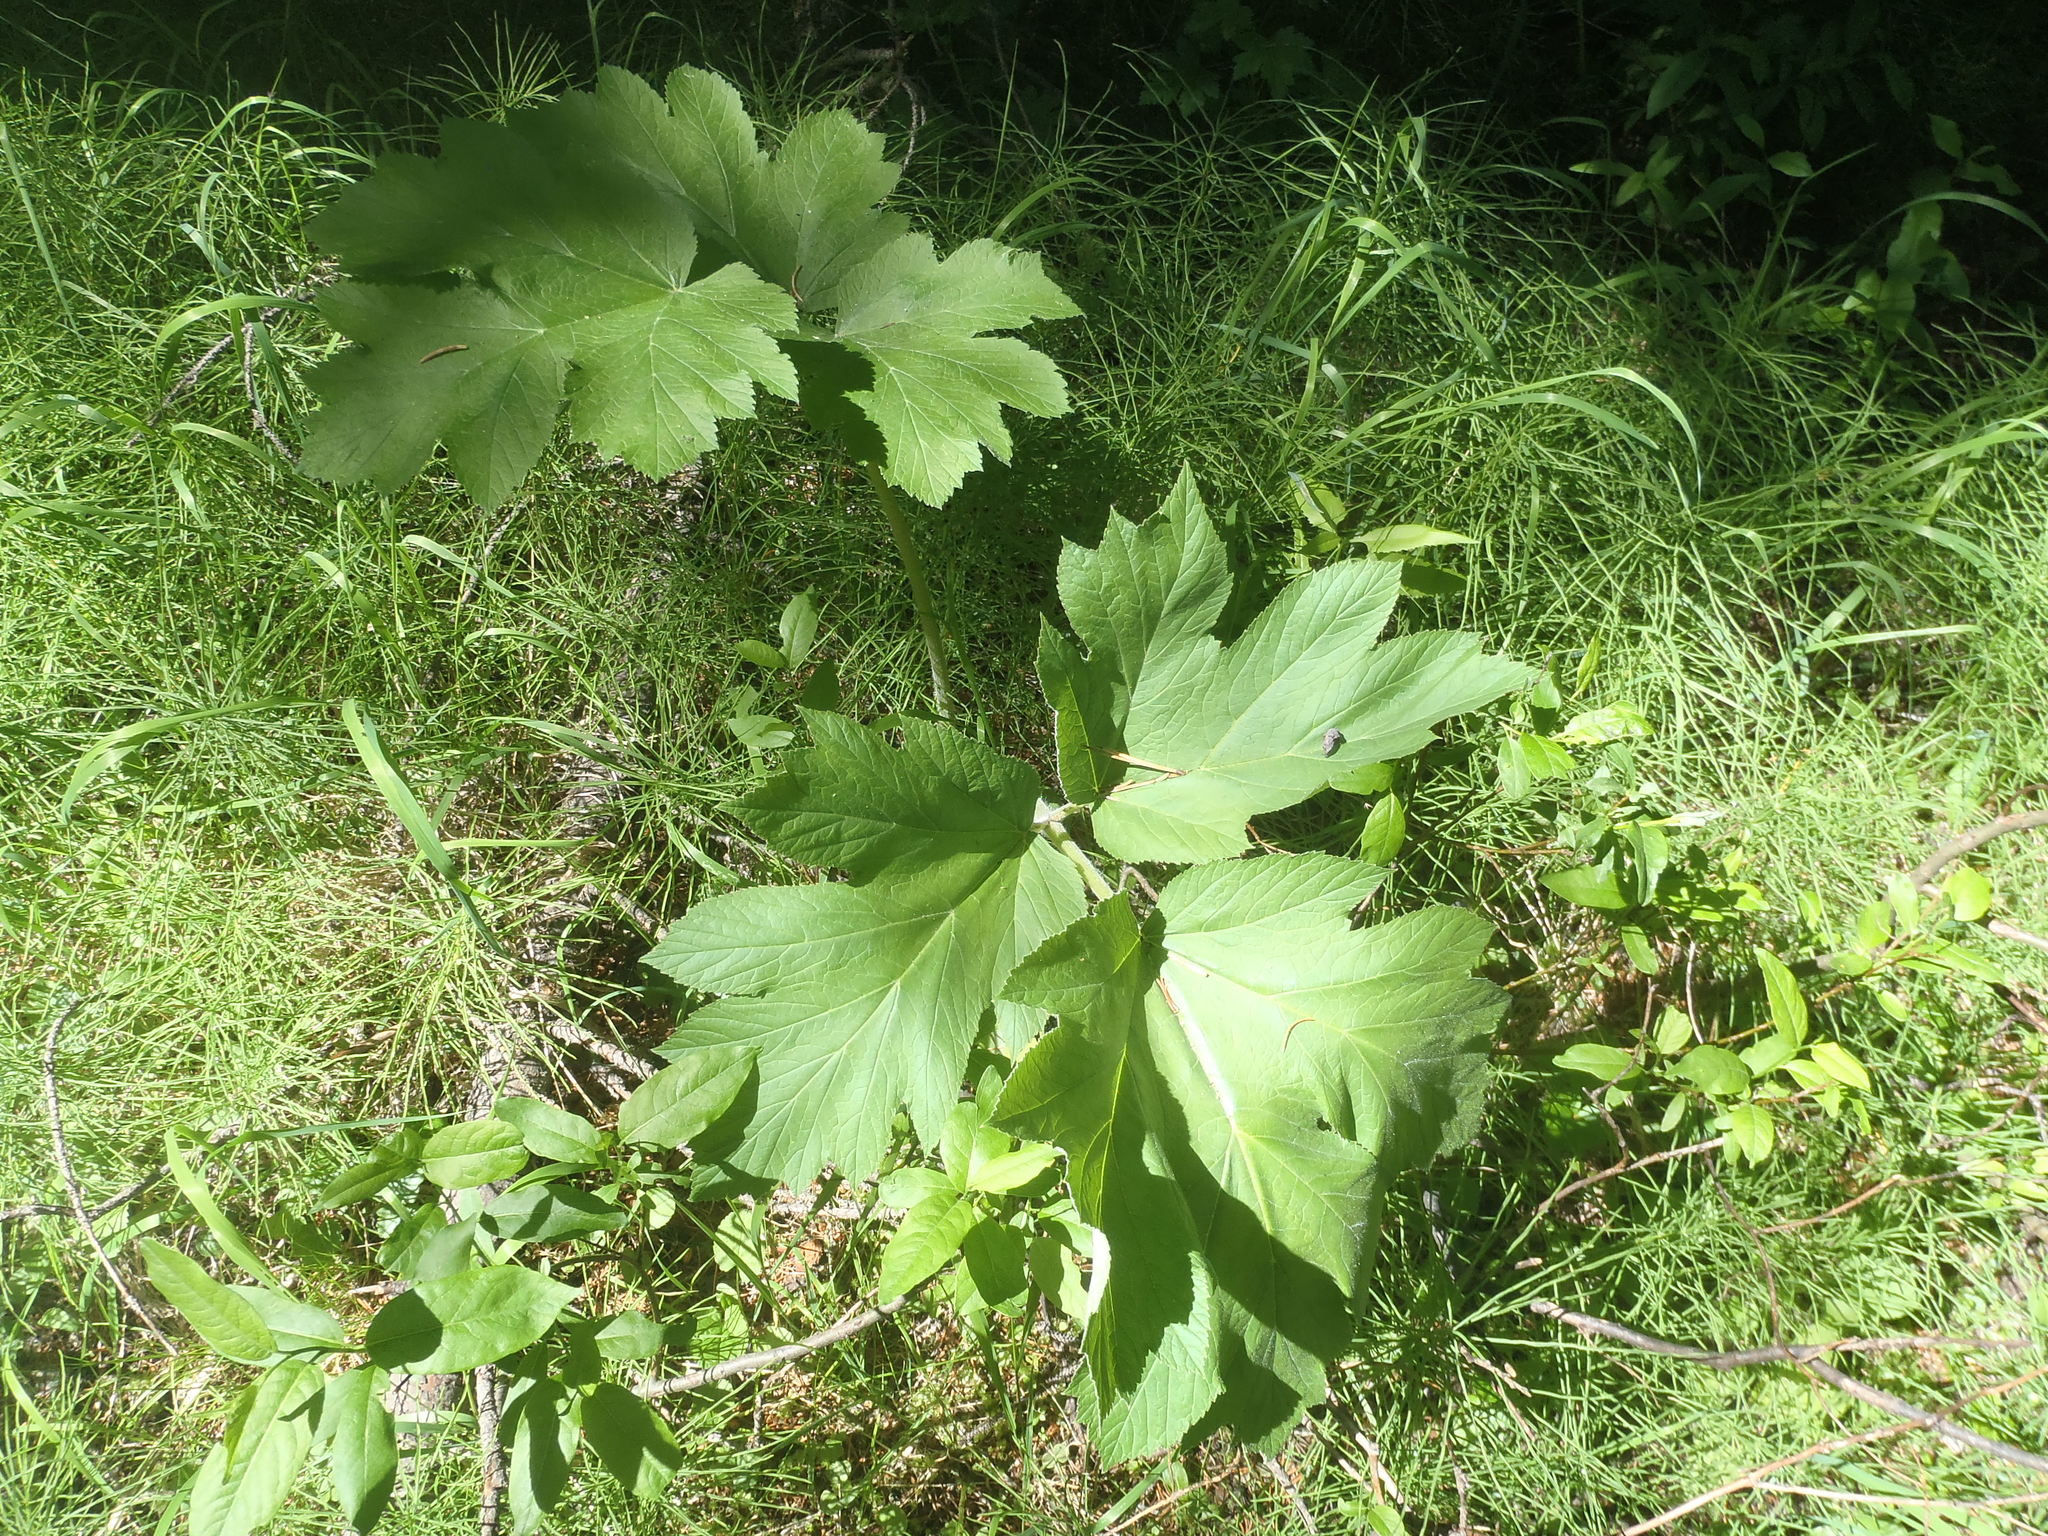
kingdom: Plantae
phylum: Tracheophyta
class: Magnoliopsida
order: Apiales
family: Apiaceae
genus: Heracleum
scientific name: Heracleum maximum
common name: American cow parsnip
